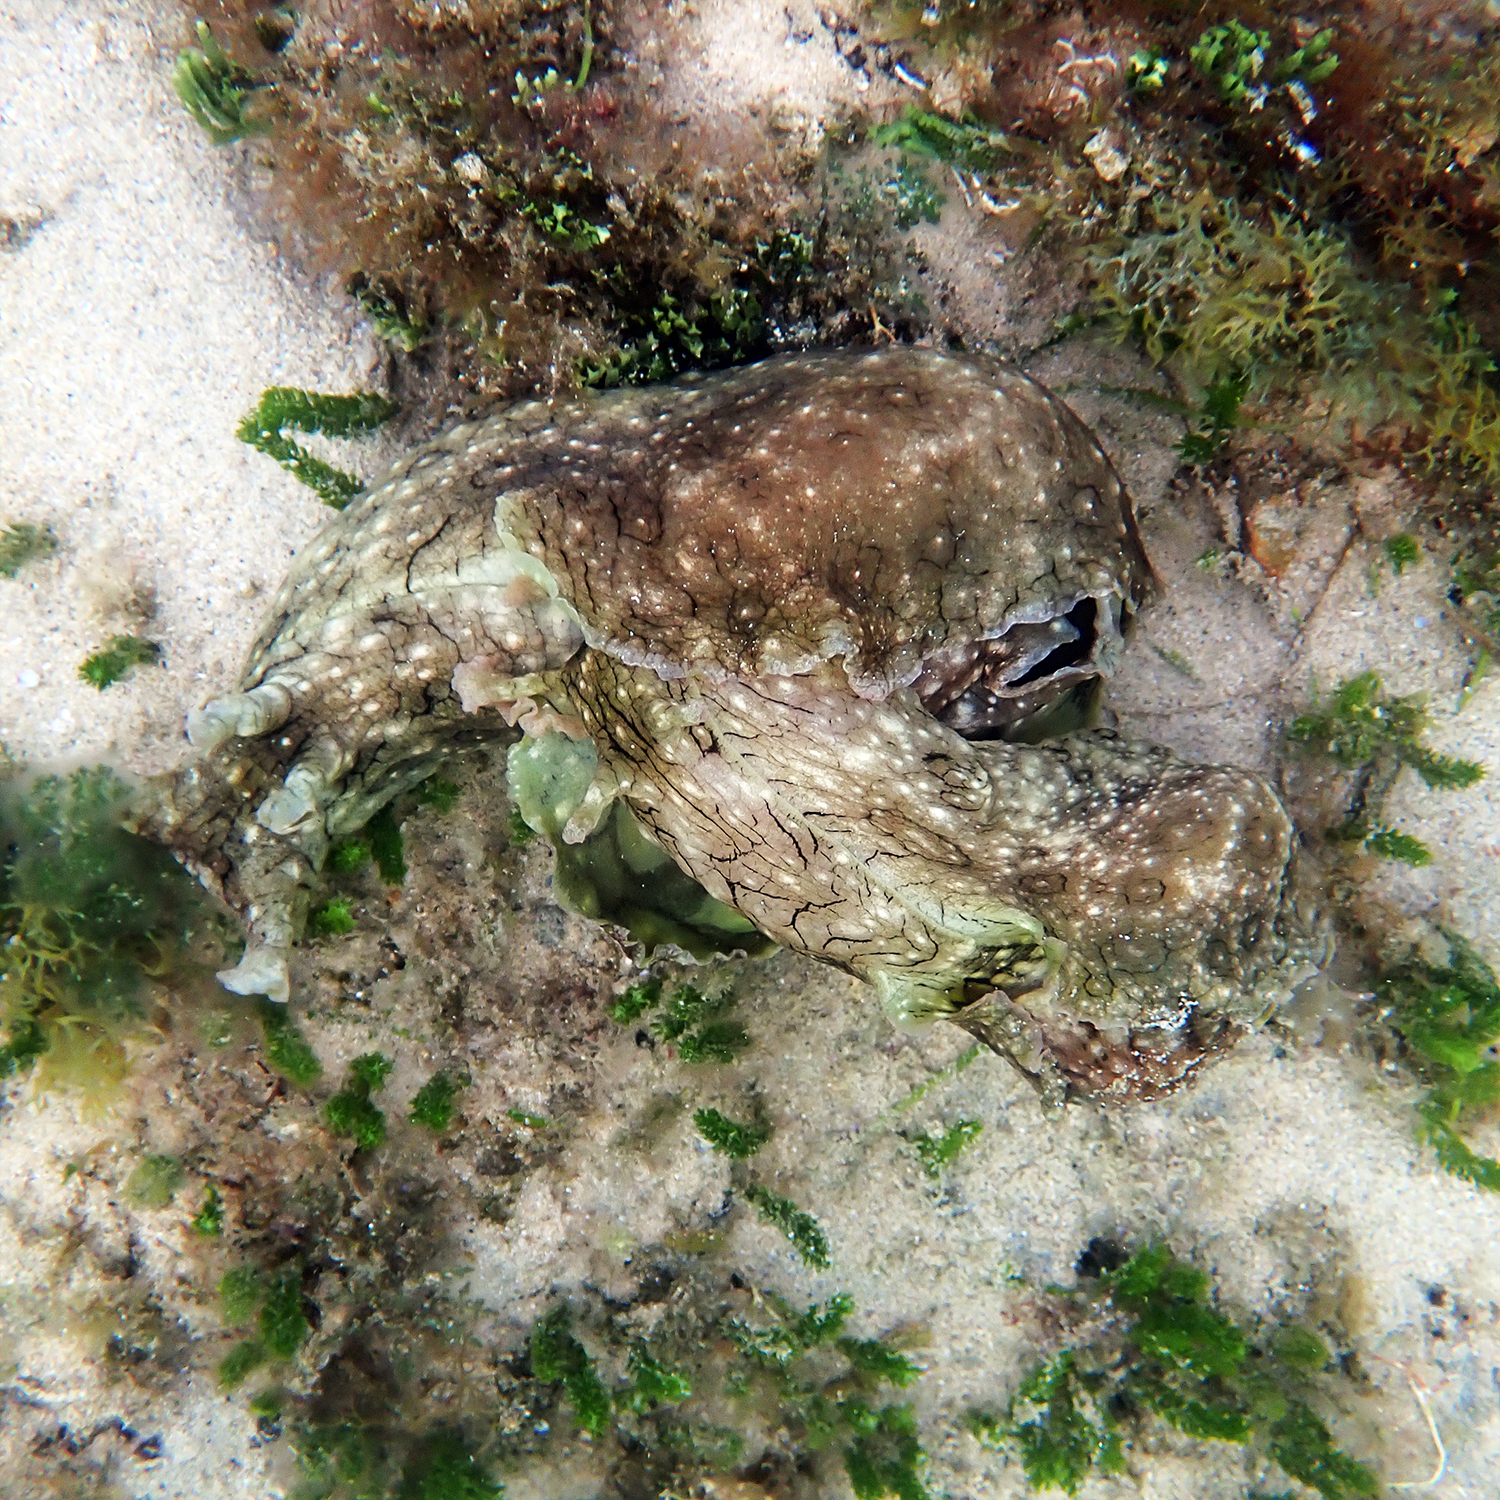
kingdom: Animalia
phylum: Mollusca
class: Gastropoda
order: Aplysiida
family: Aplysiidae
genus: Aplysia
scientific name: Aplysia argus
